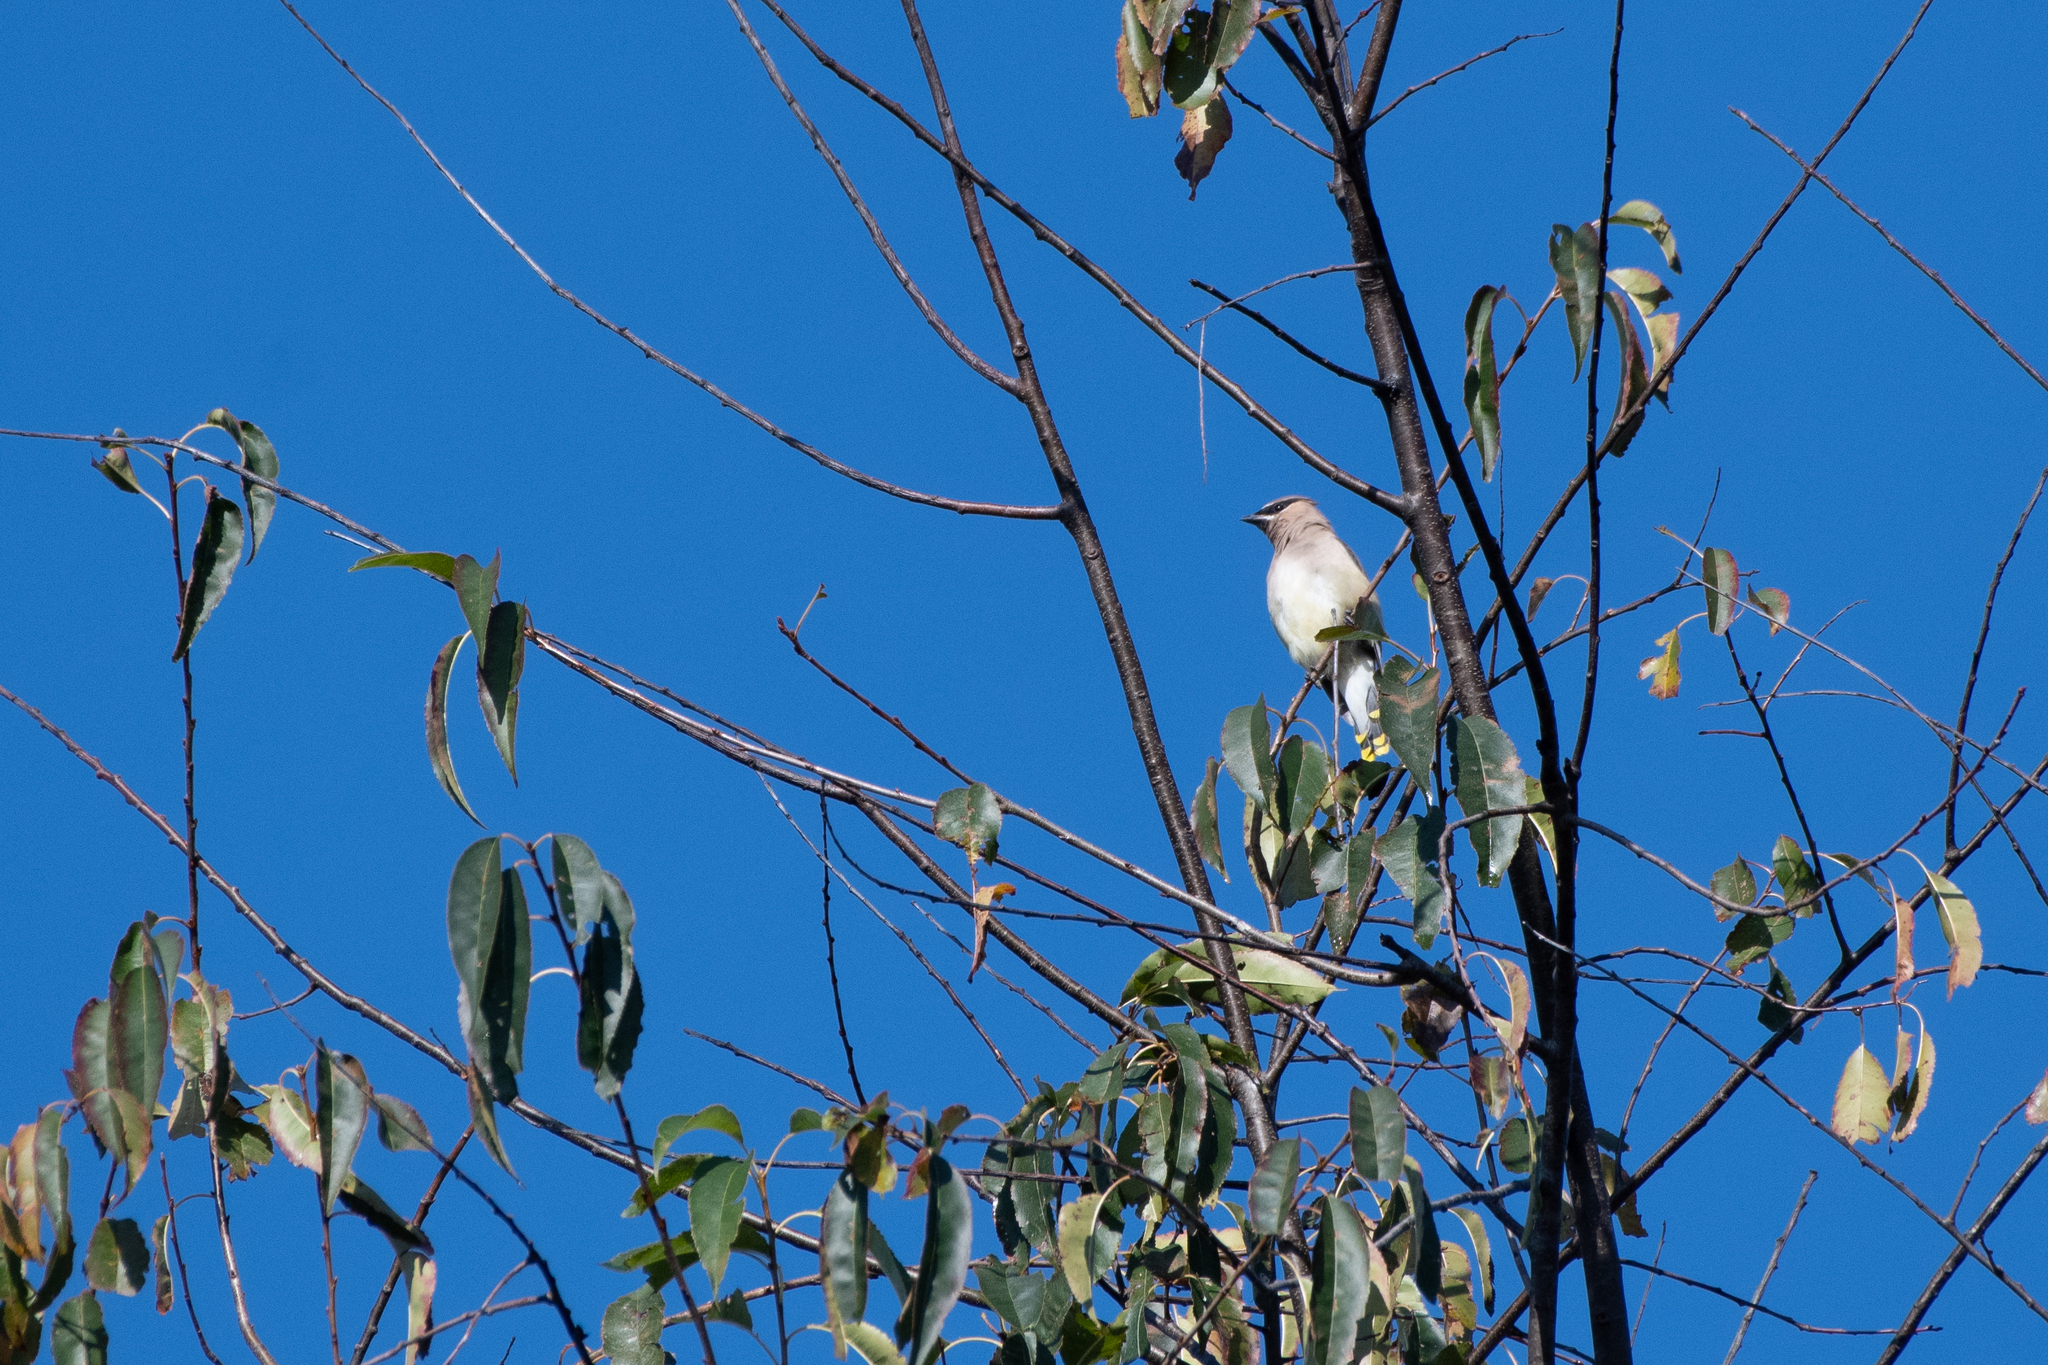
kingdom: Animalia
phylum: Chordata
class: Aves
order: Passeriformes
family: Bombycillidae
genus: Bombycilla
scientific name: Bombycilla cedrorum
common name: Cedar waxwing
